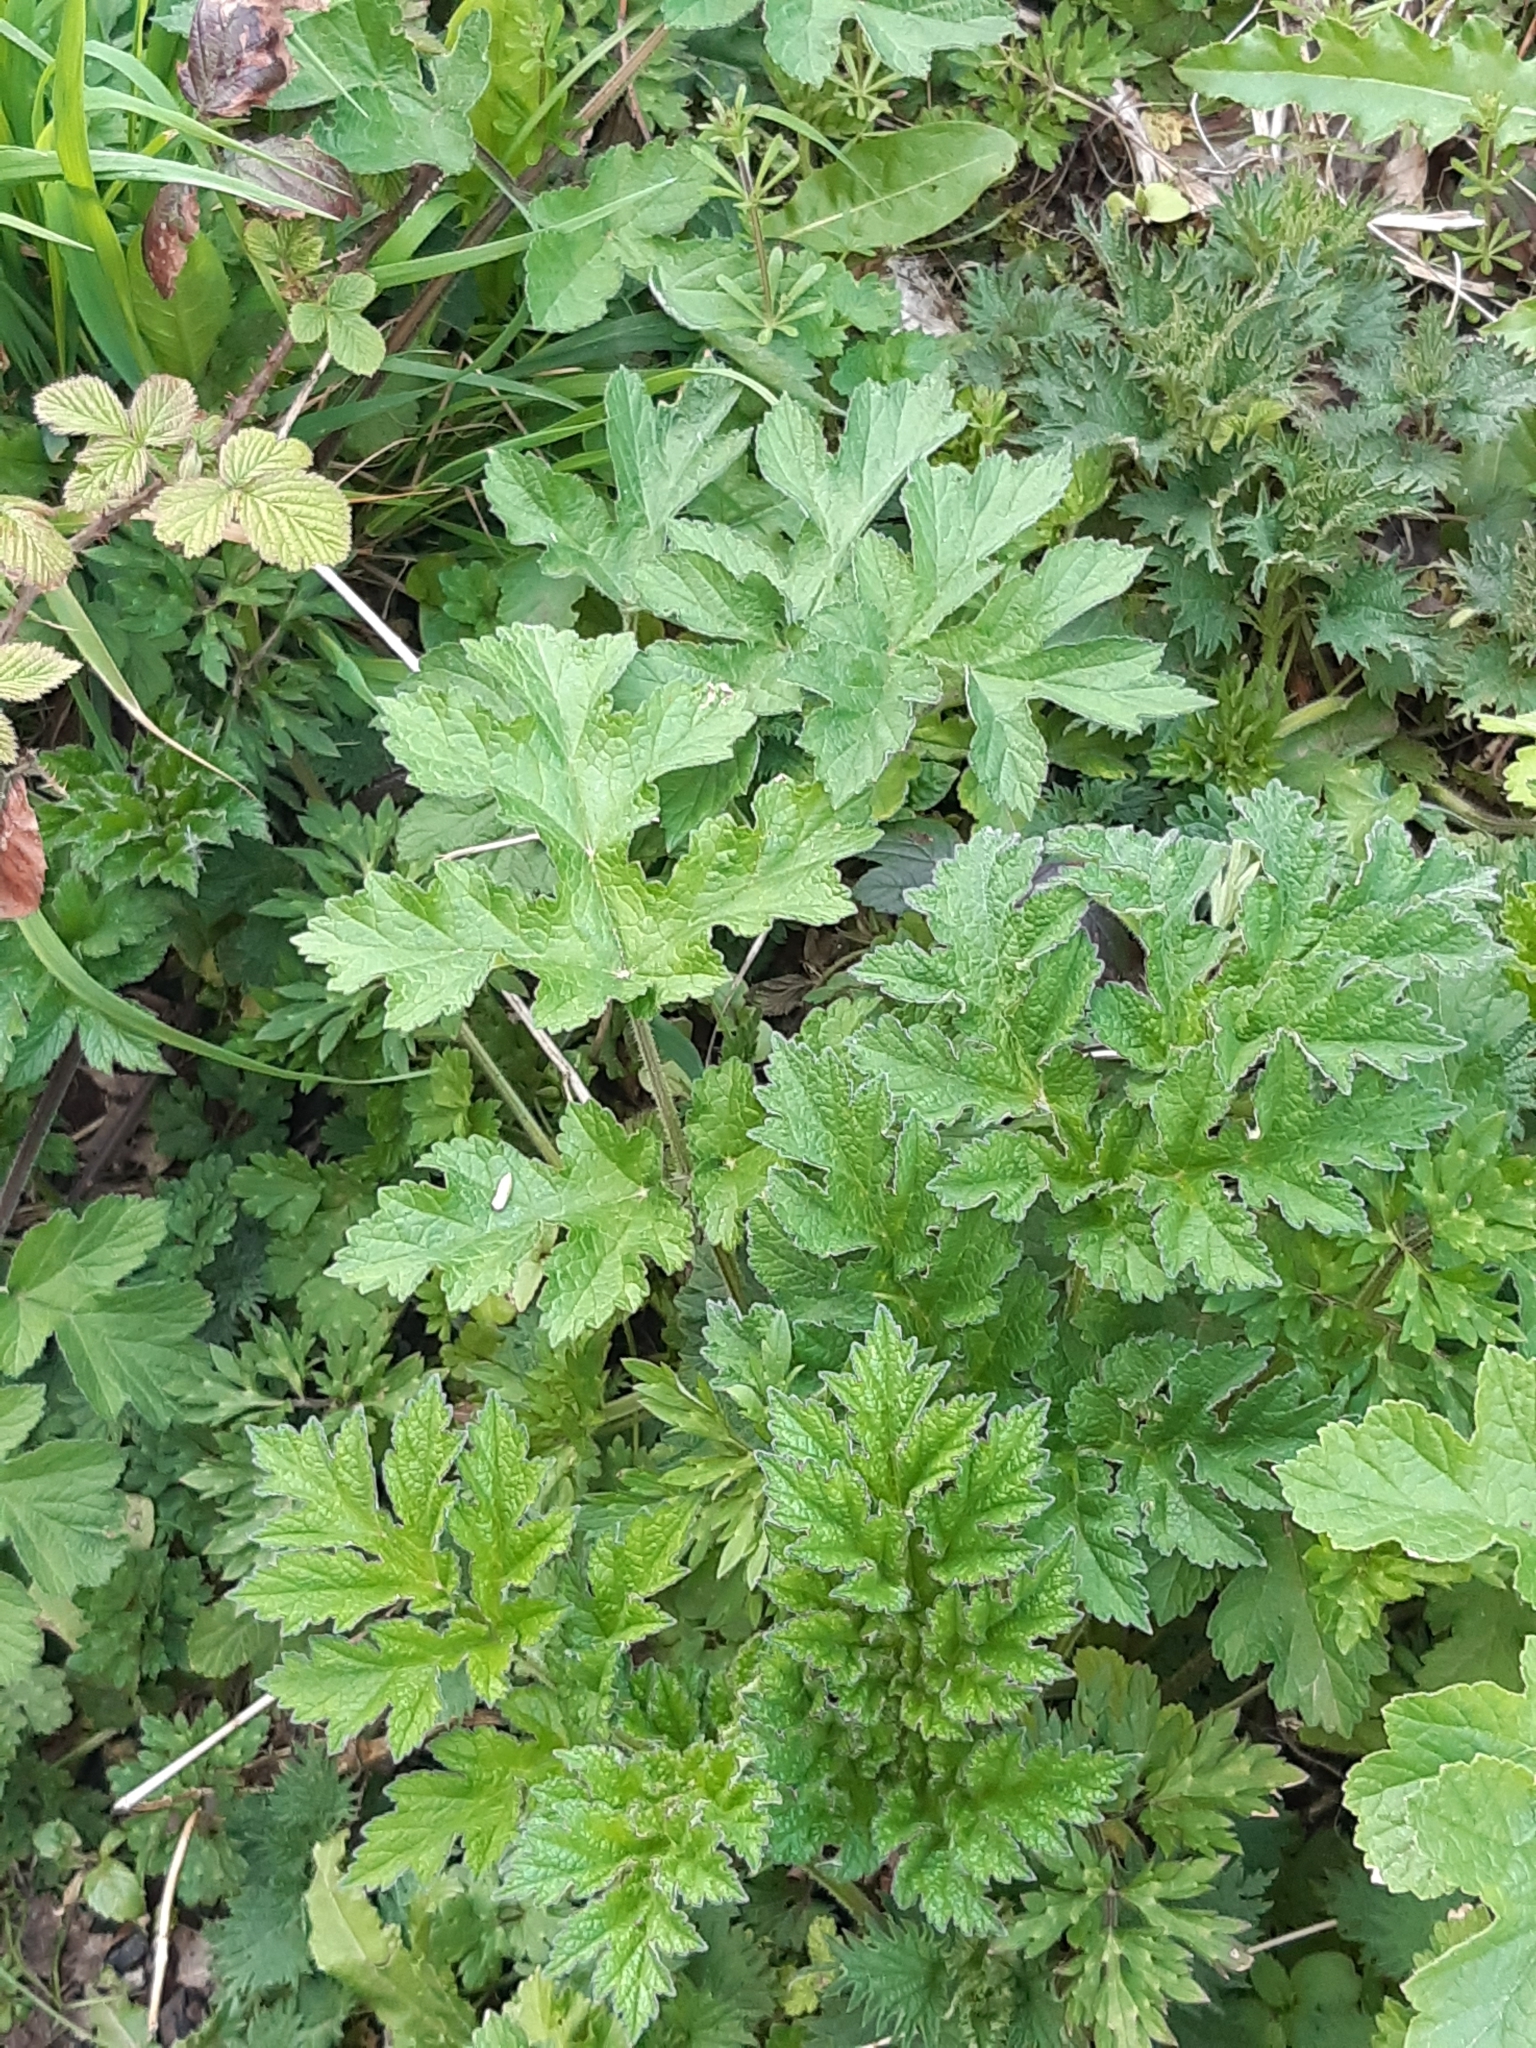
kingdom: Plantae
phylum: Tracheophyta
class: Magnoliopsida
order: Apiales
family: Apiaceae
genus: Heracleum
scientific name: Heracleum sphondylium
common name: Hogweed
